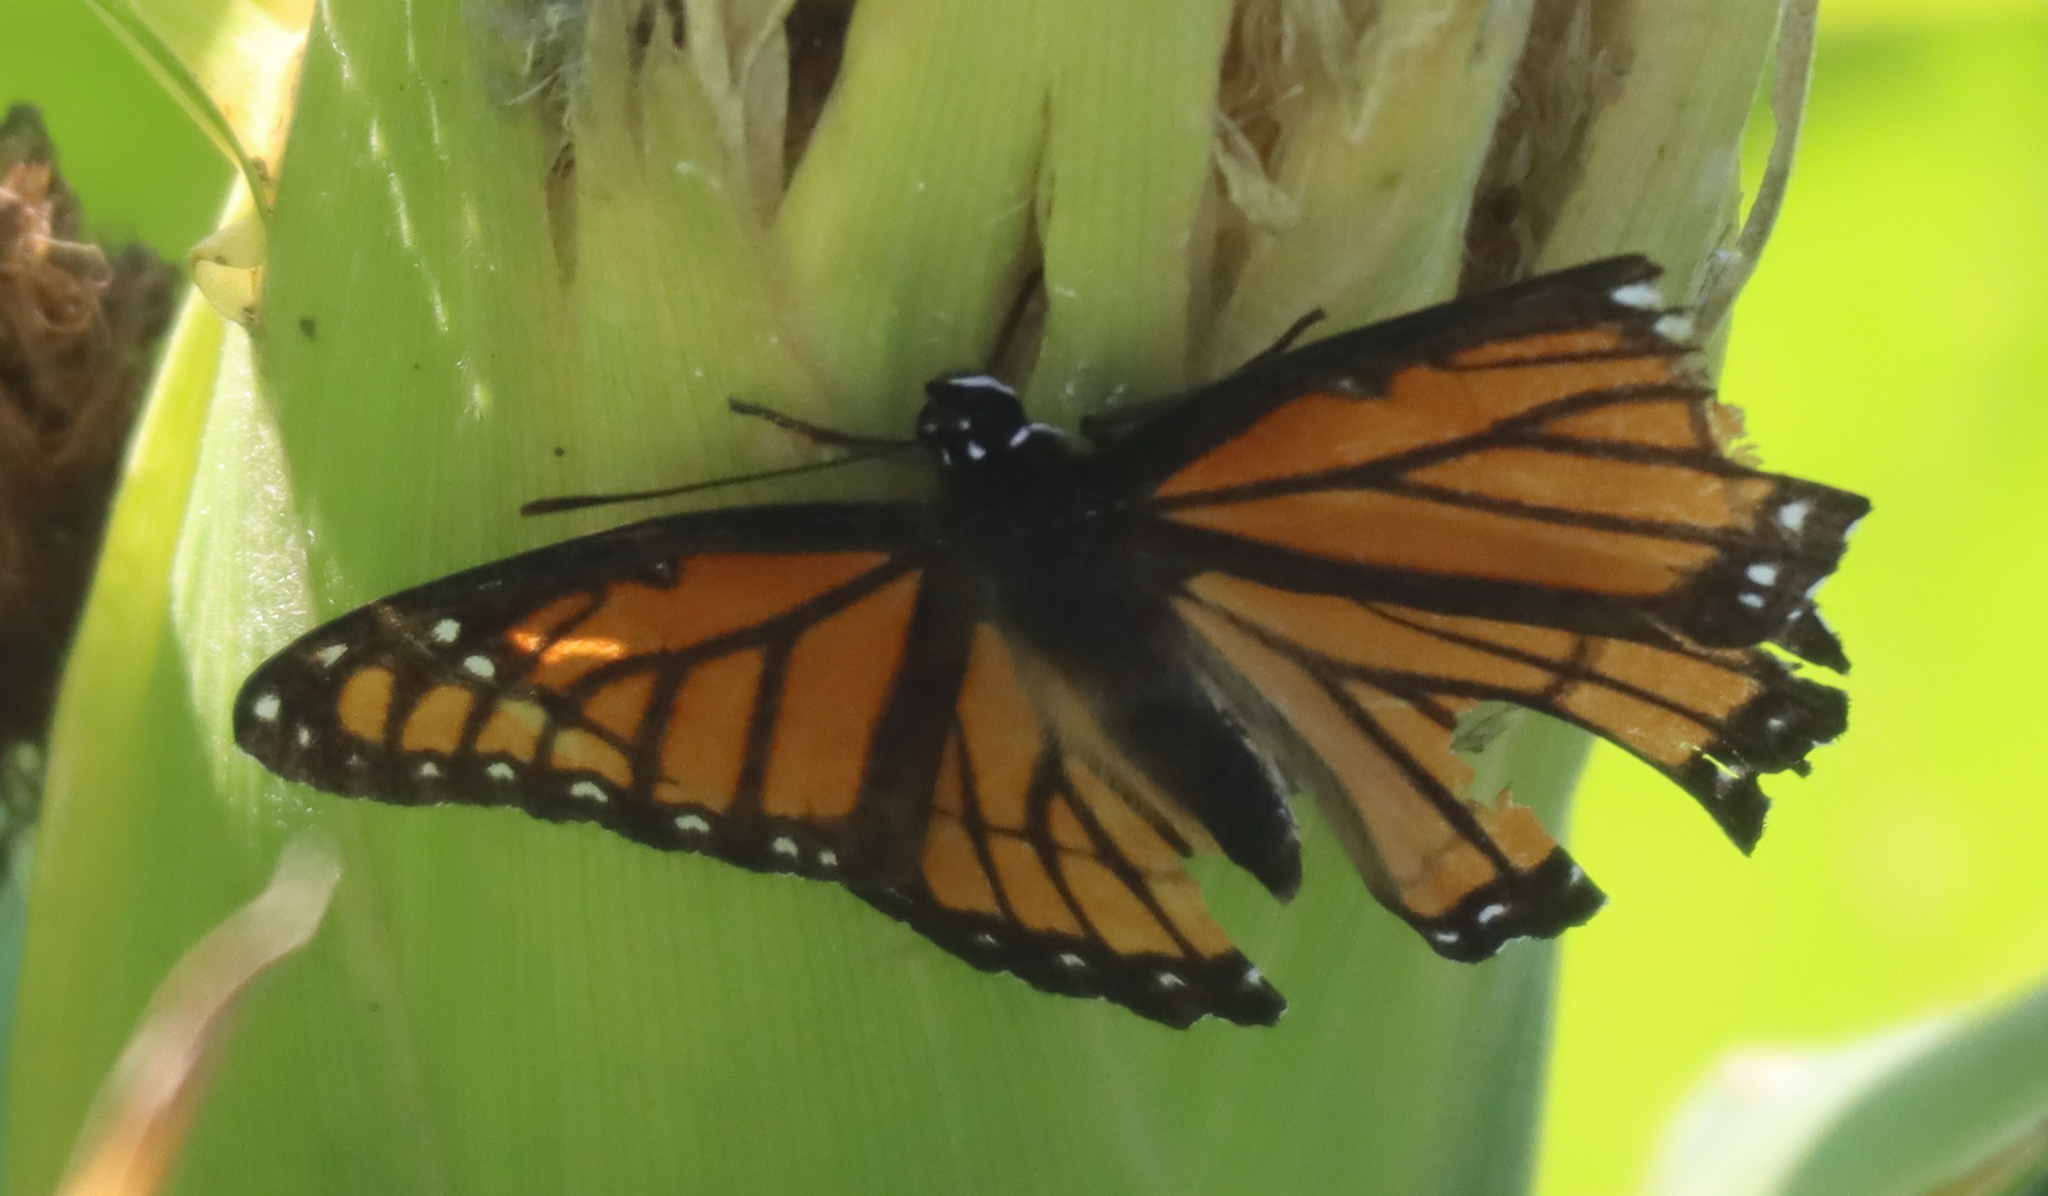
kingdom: Animalia
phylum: Arthropoda
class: Insecta
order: Lepidoptera
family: Nymphalidae
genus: Limenitis
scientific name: Limenitis archippus
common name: Viceroy
